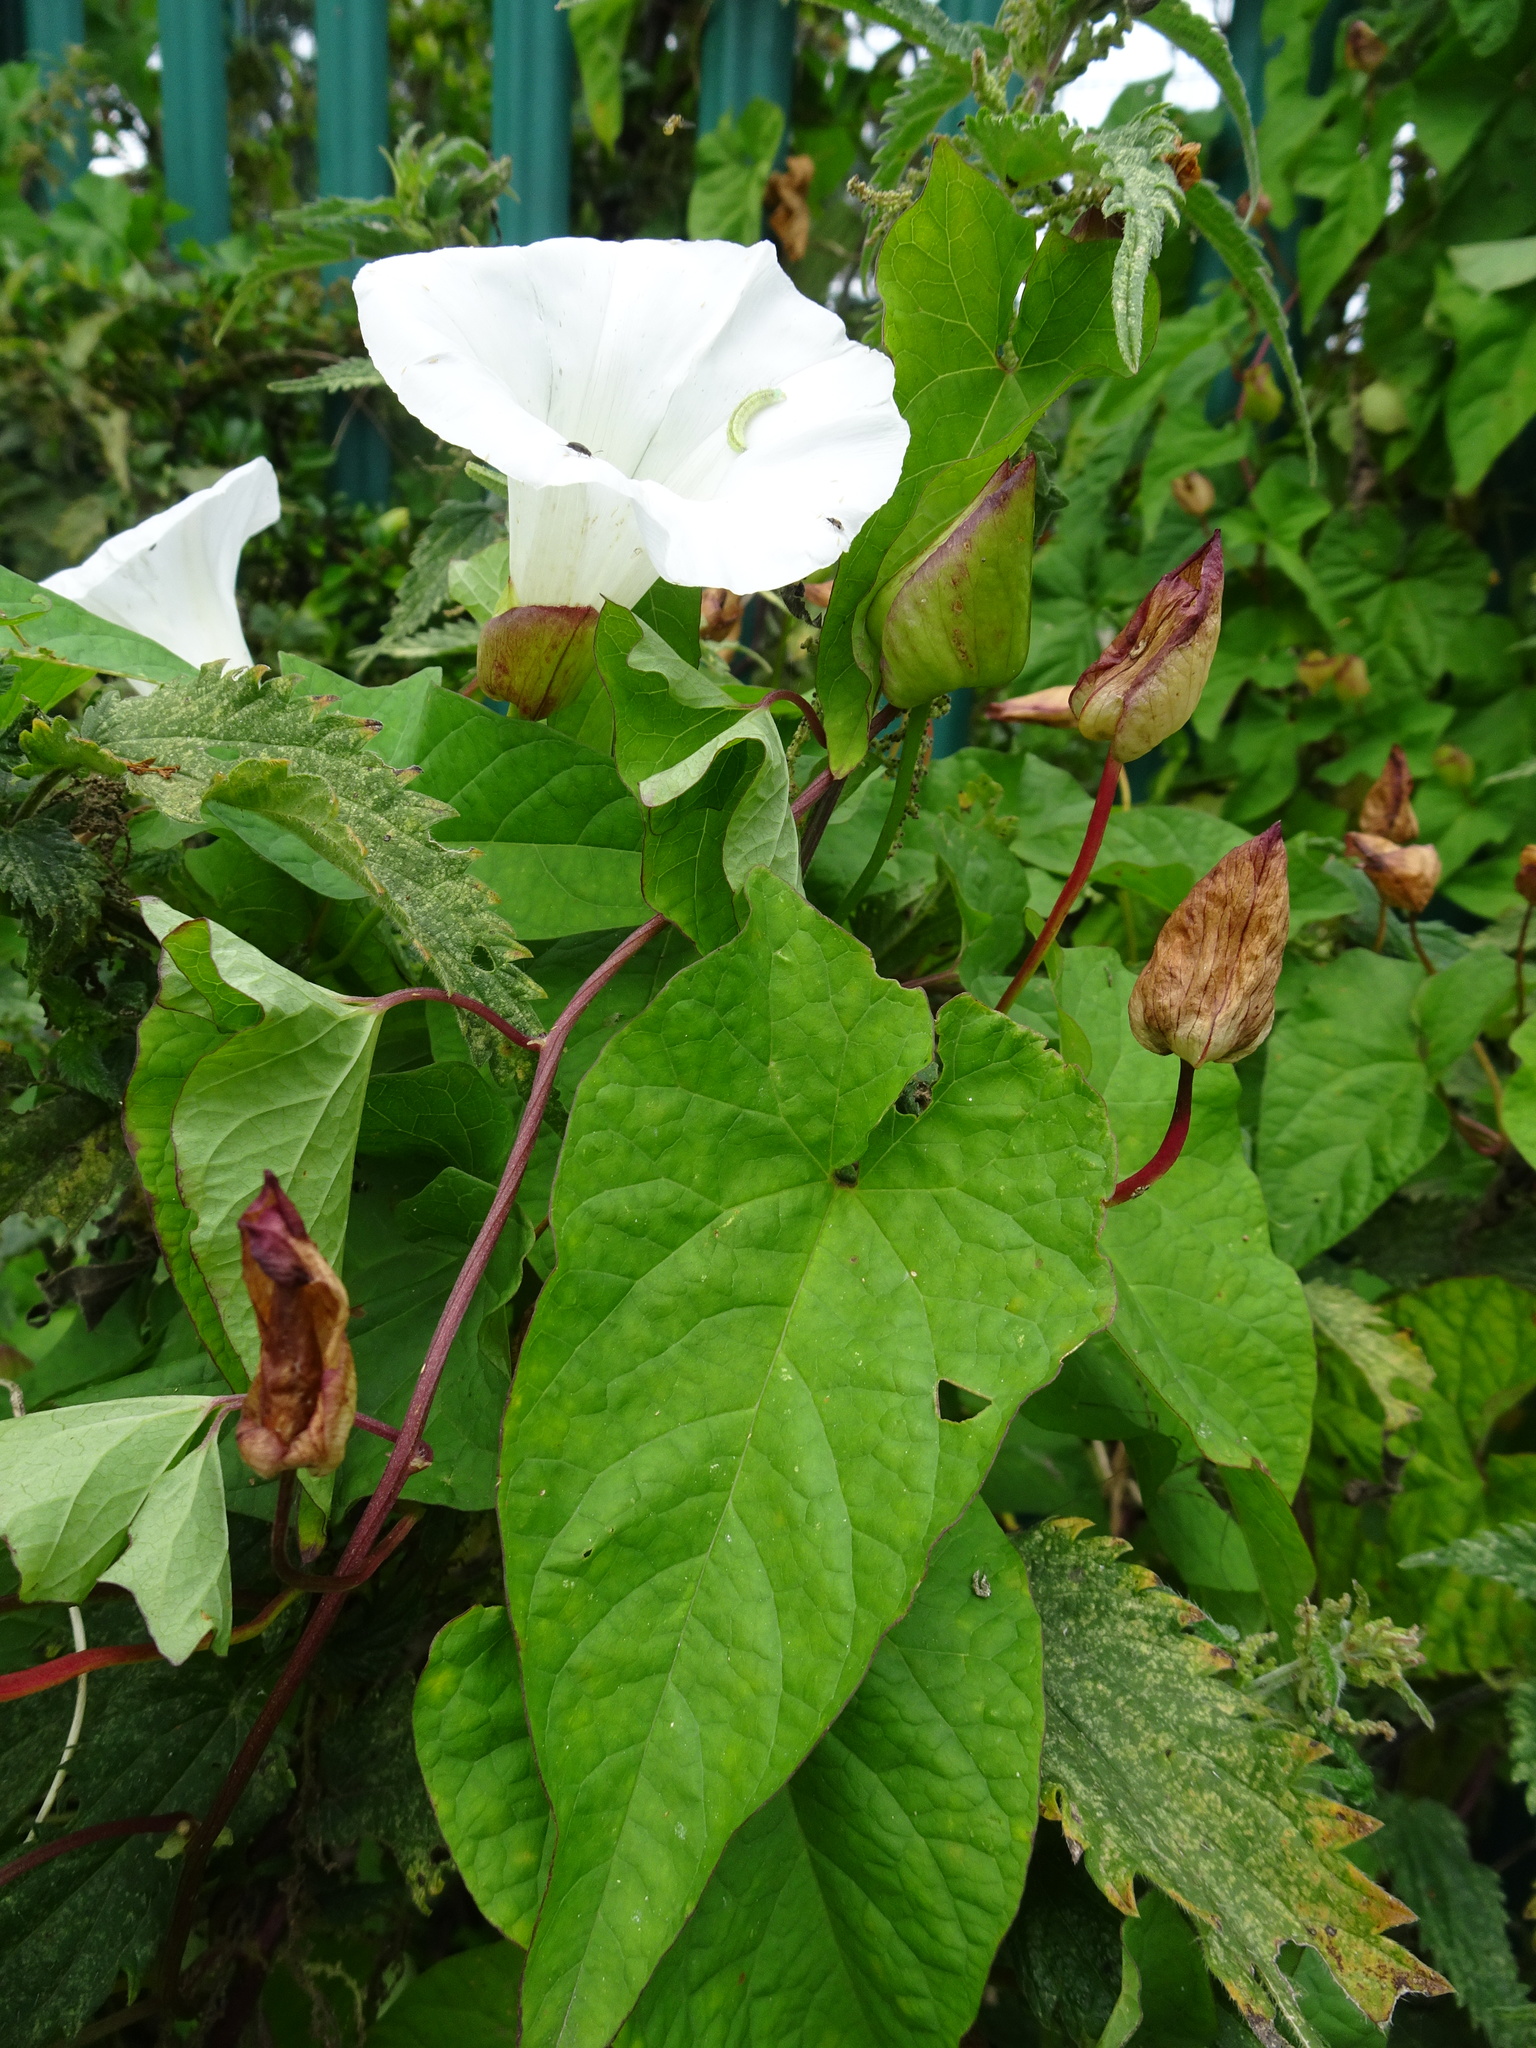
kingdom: Plantae
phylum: Tracheophyta
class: Magnoliopsida
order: Solanales
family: Convolvulaceae
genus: Calystegia
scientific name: Calystegia silvatica
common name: Large bindweed
